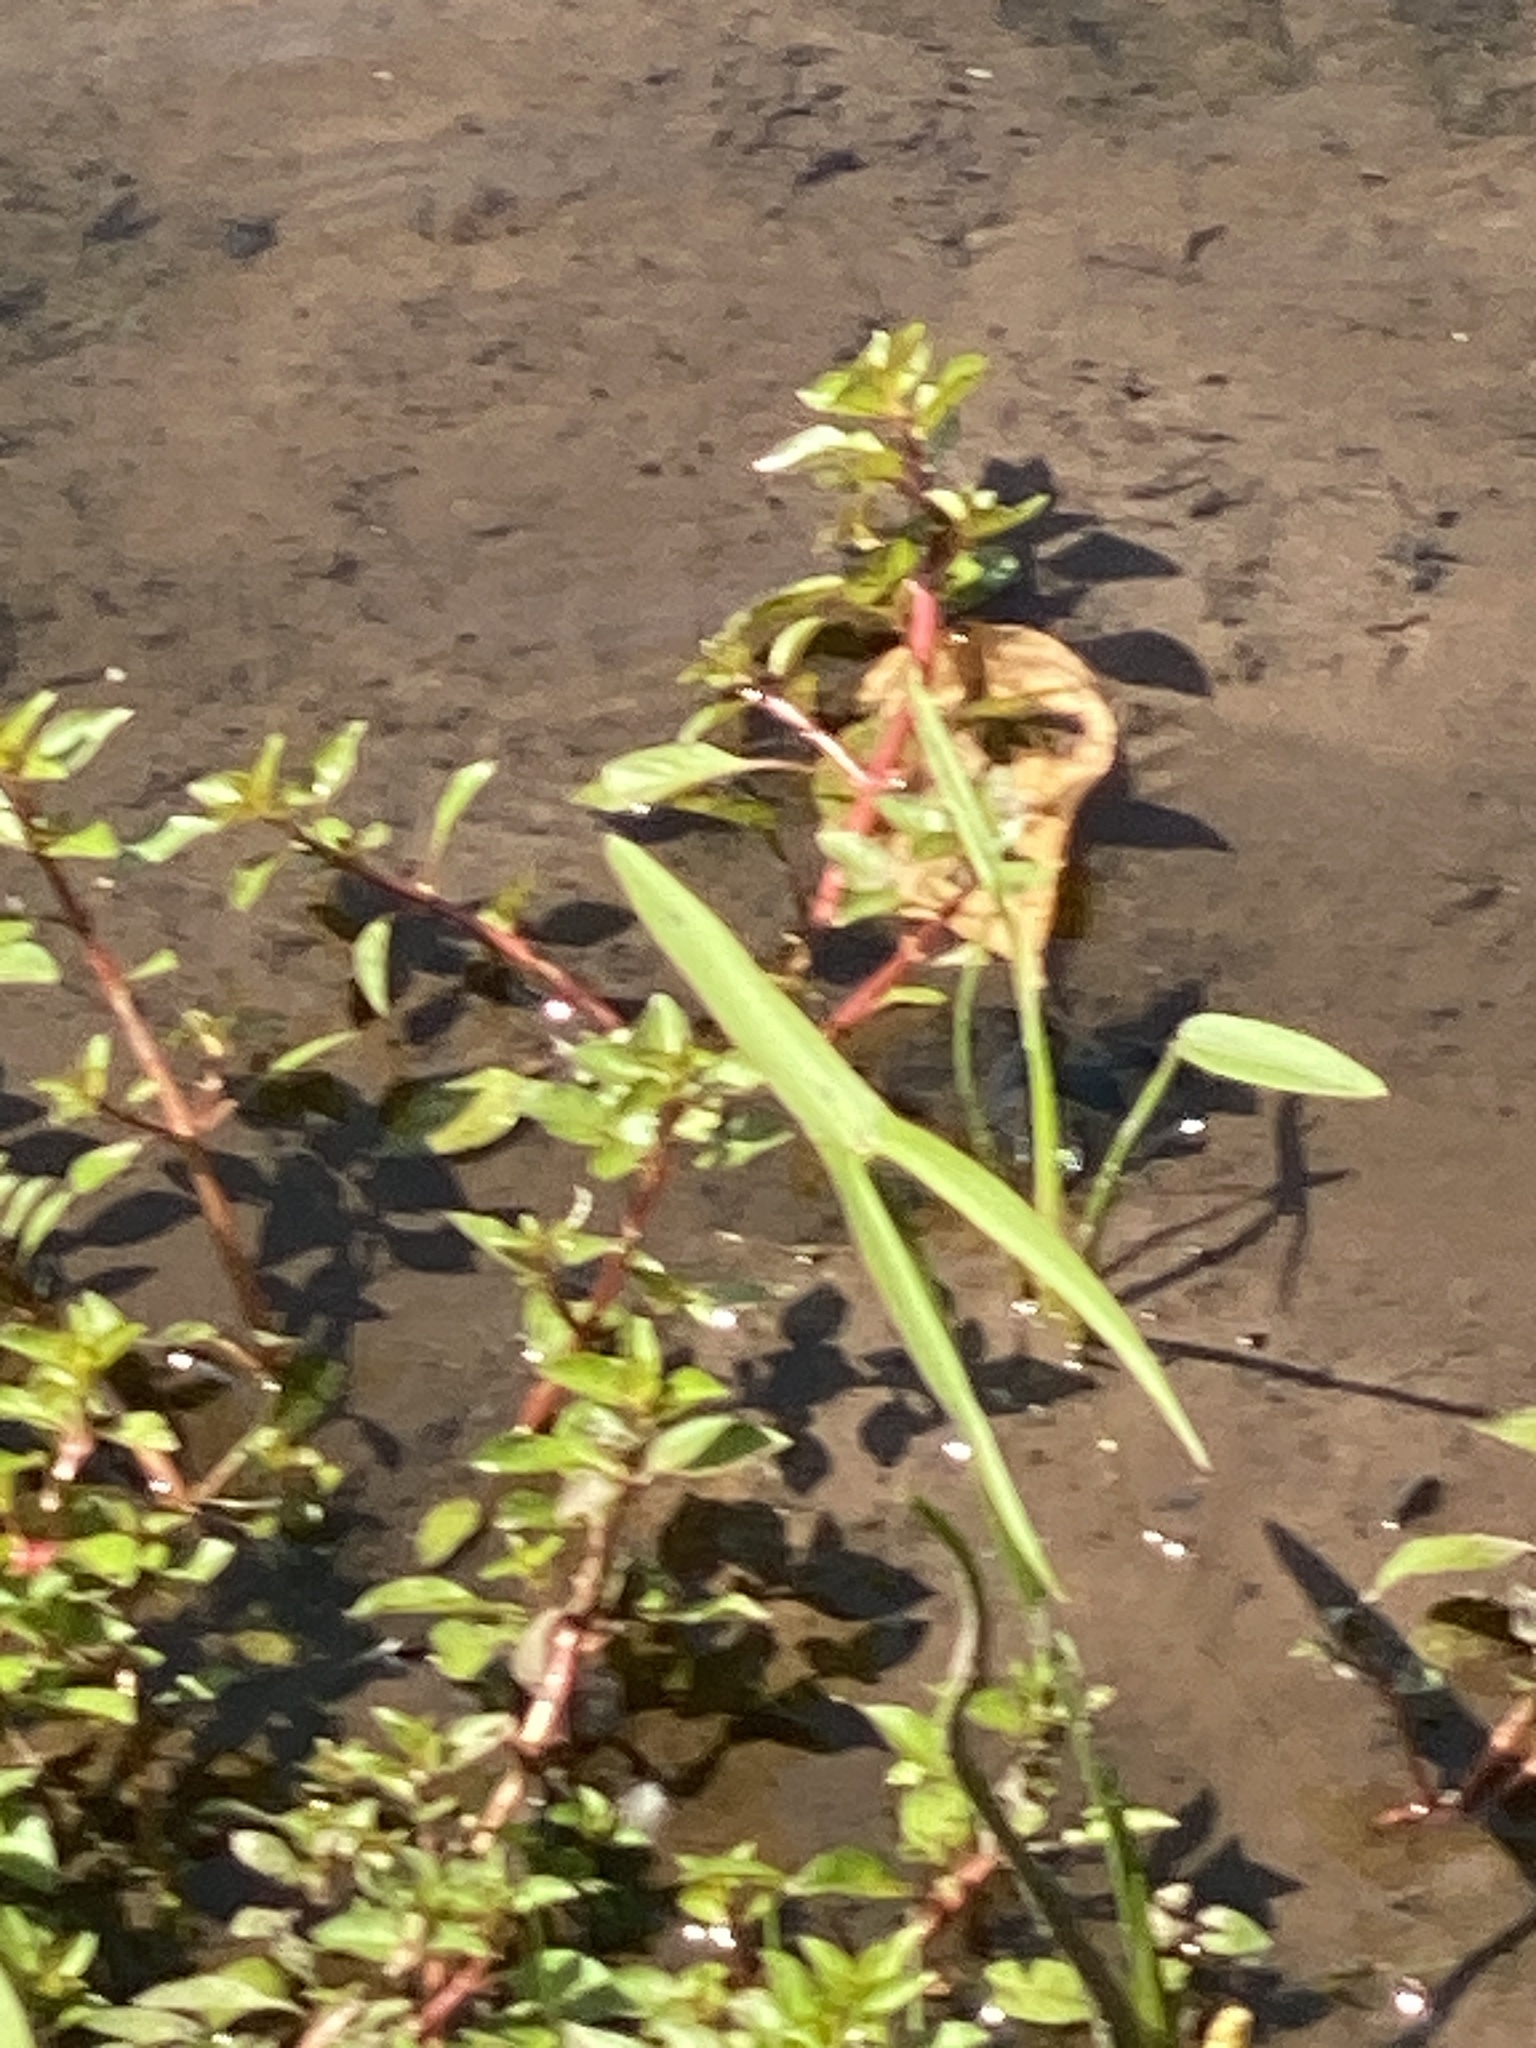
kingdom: Plantae
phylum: Tracheophyta
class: Liliopsida
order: Alismatales
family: Alismataceae
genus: Sagittaria
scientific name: Sagittaria latifolia
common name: Duck-potato
